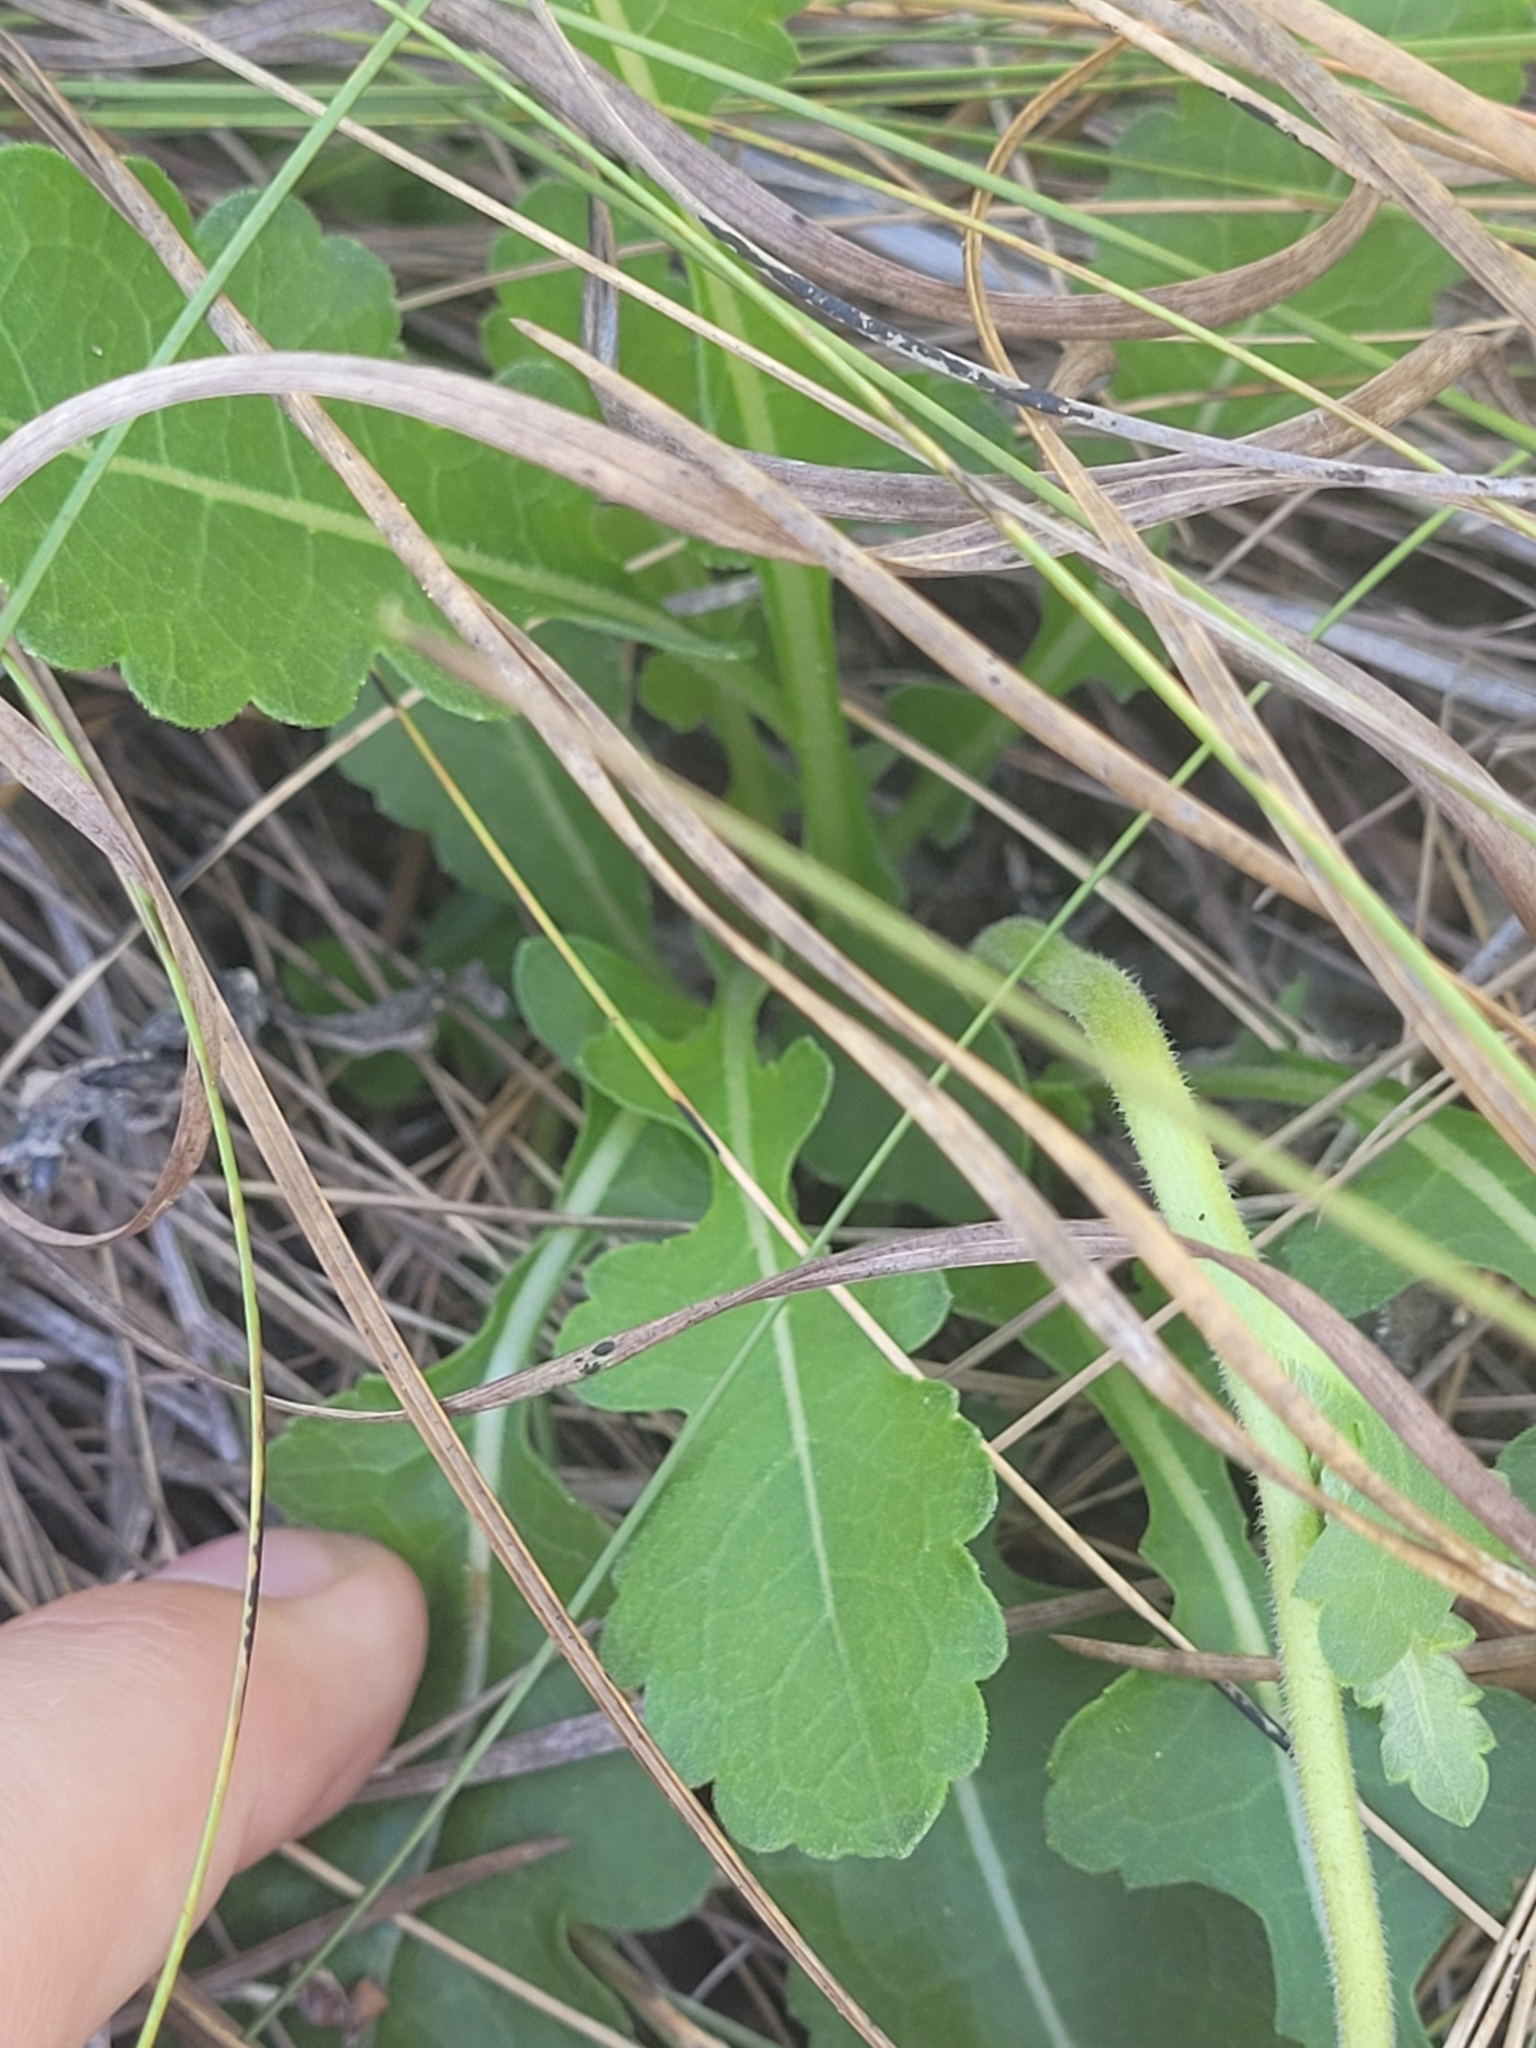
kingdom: Plantae
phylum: Tracheophyta
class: Magnoliopsida
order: Asterales
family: Asteraceae
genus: Berlandiera
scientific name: Berlandiera subacaulis
